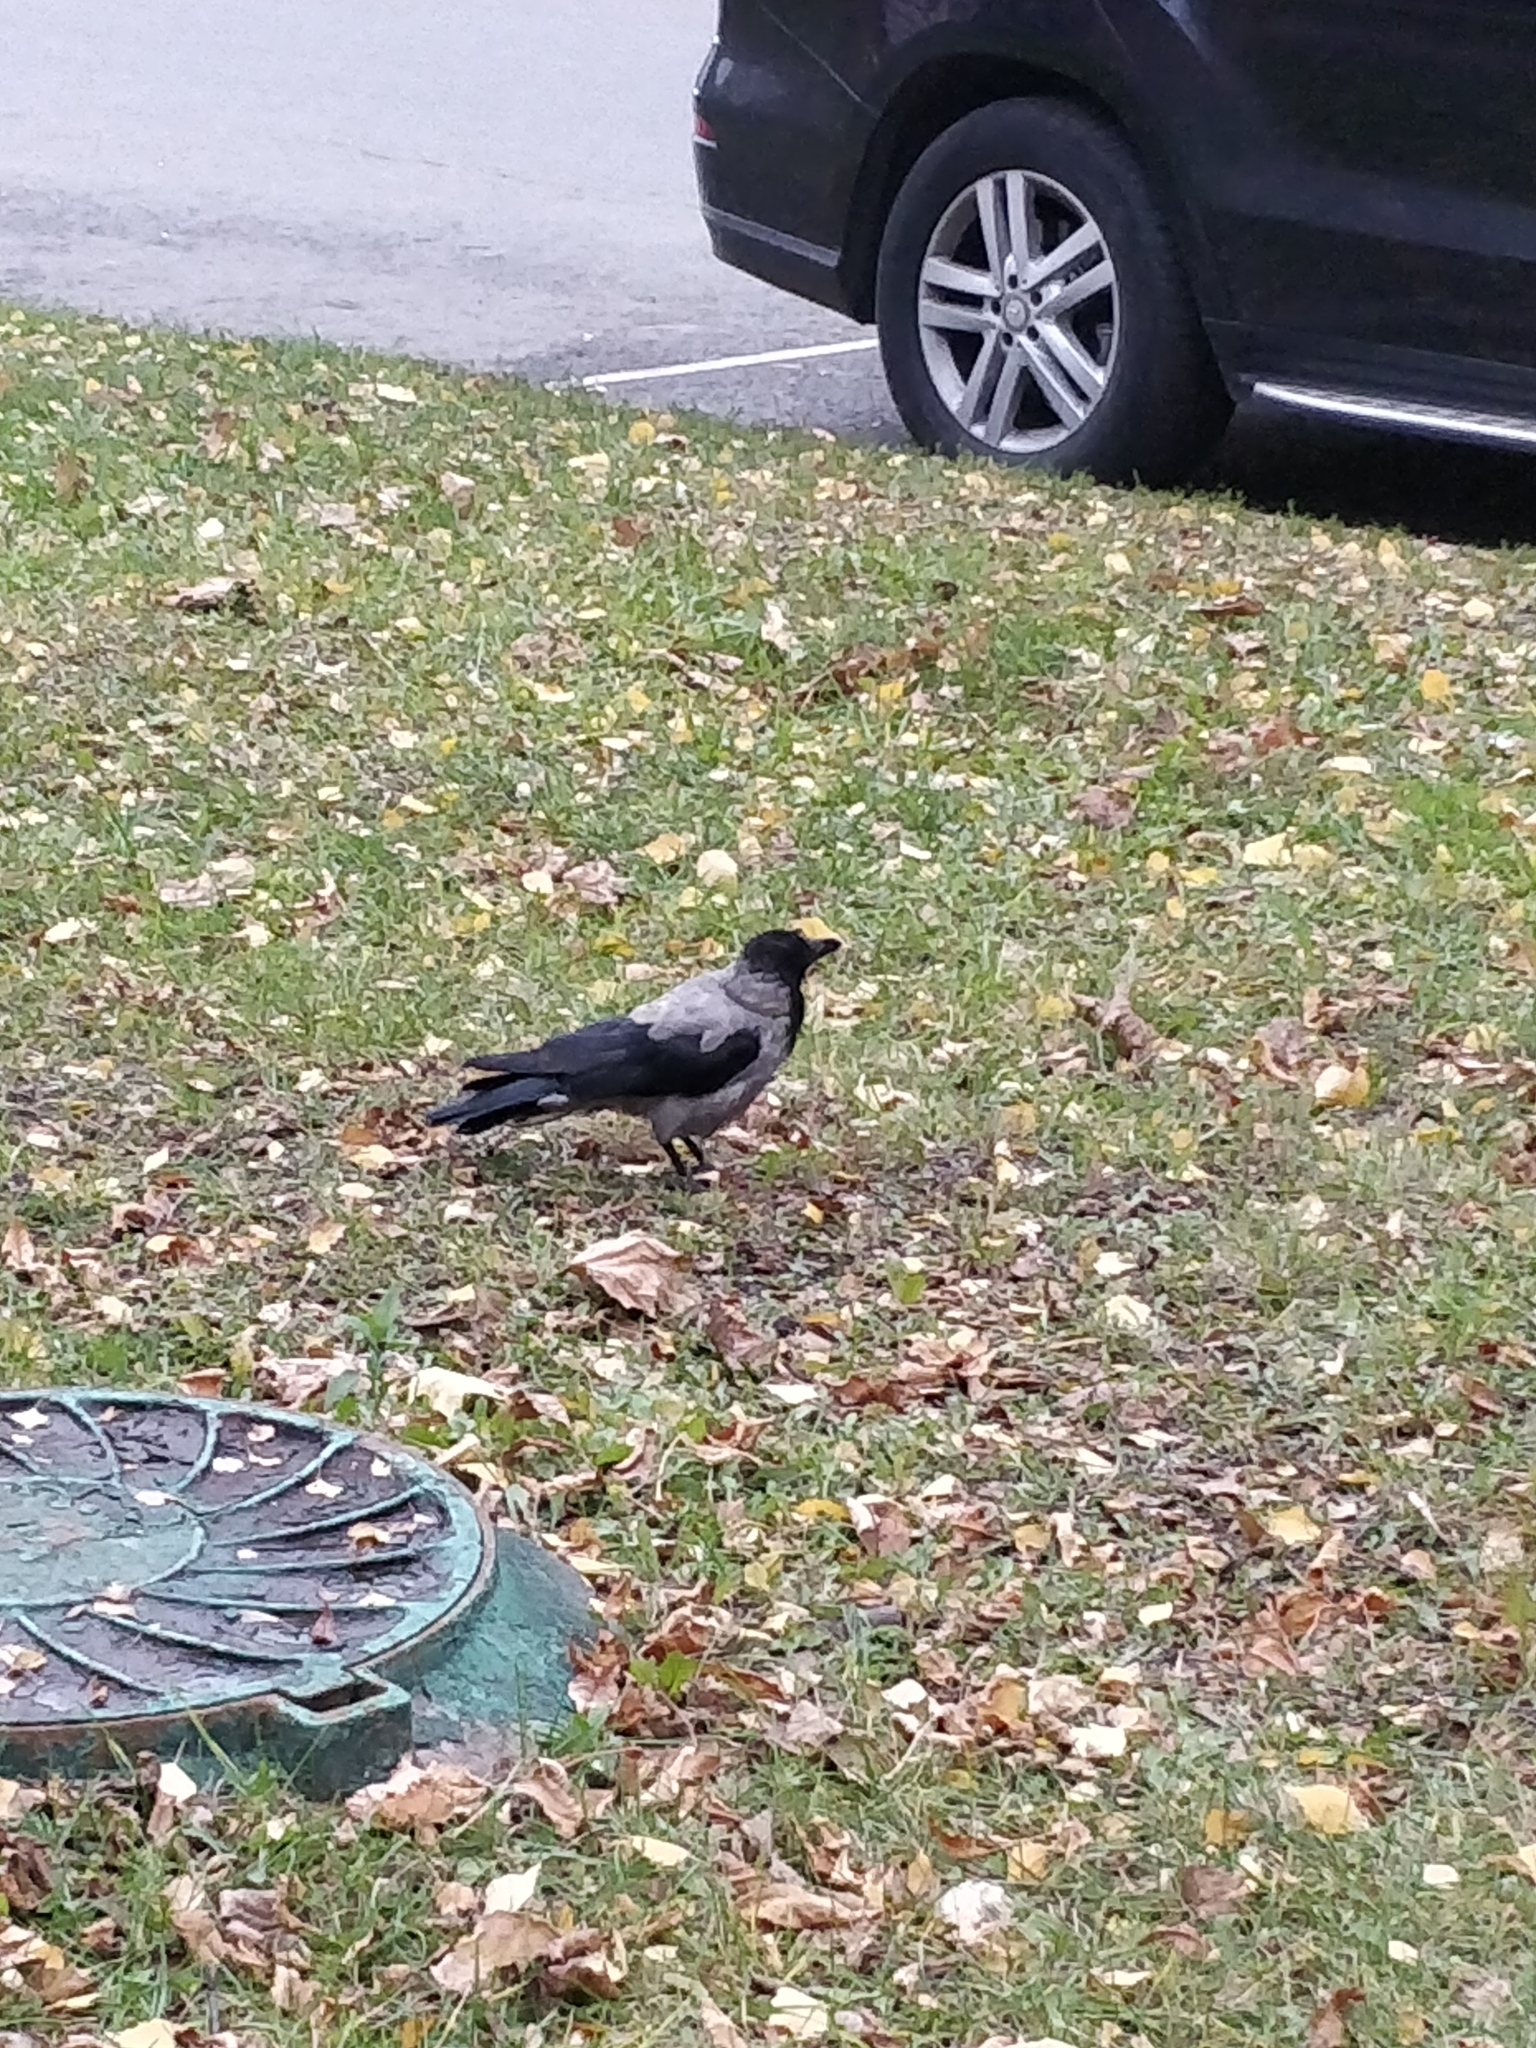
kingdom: Animalia
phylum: Chordata
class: Aves
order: Passeriformes
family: Corvidae
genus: Corvus
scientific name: Corvus cornix
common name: Hooded crow
